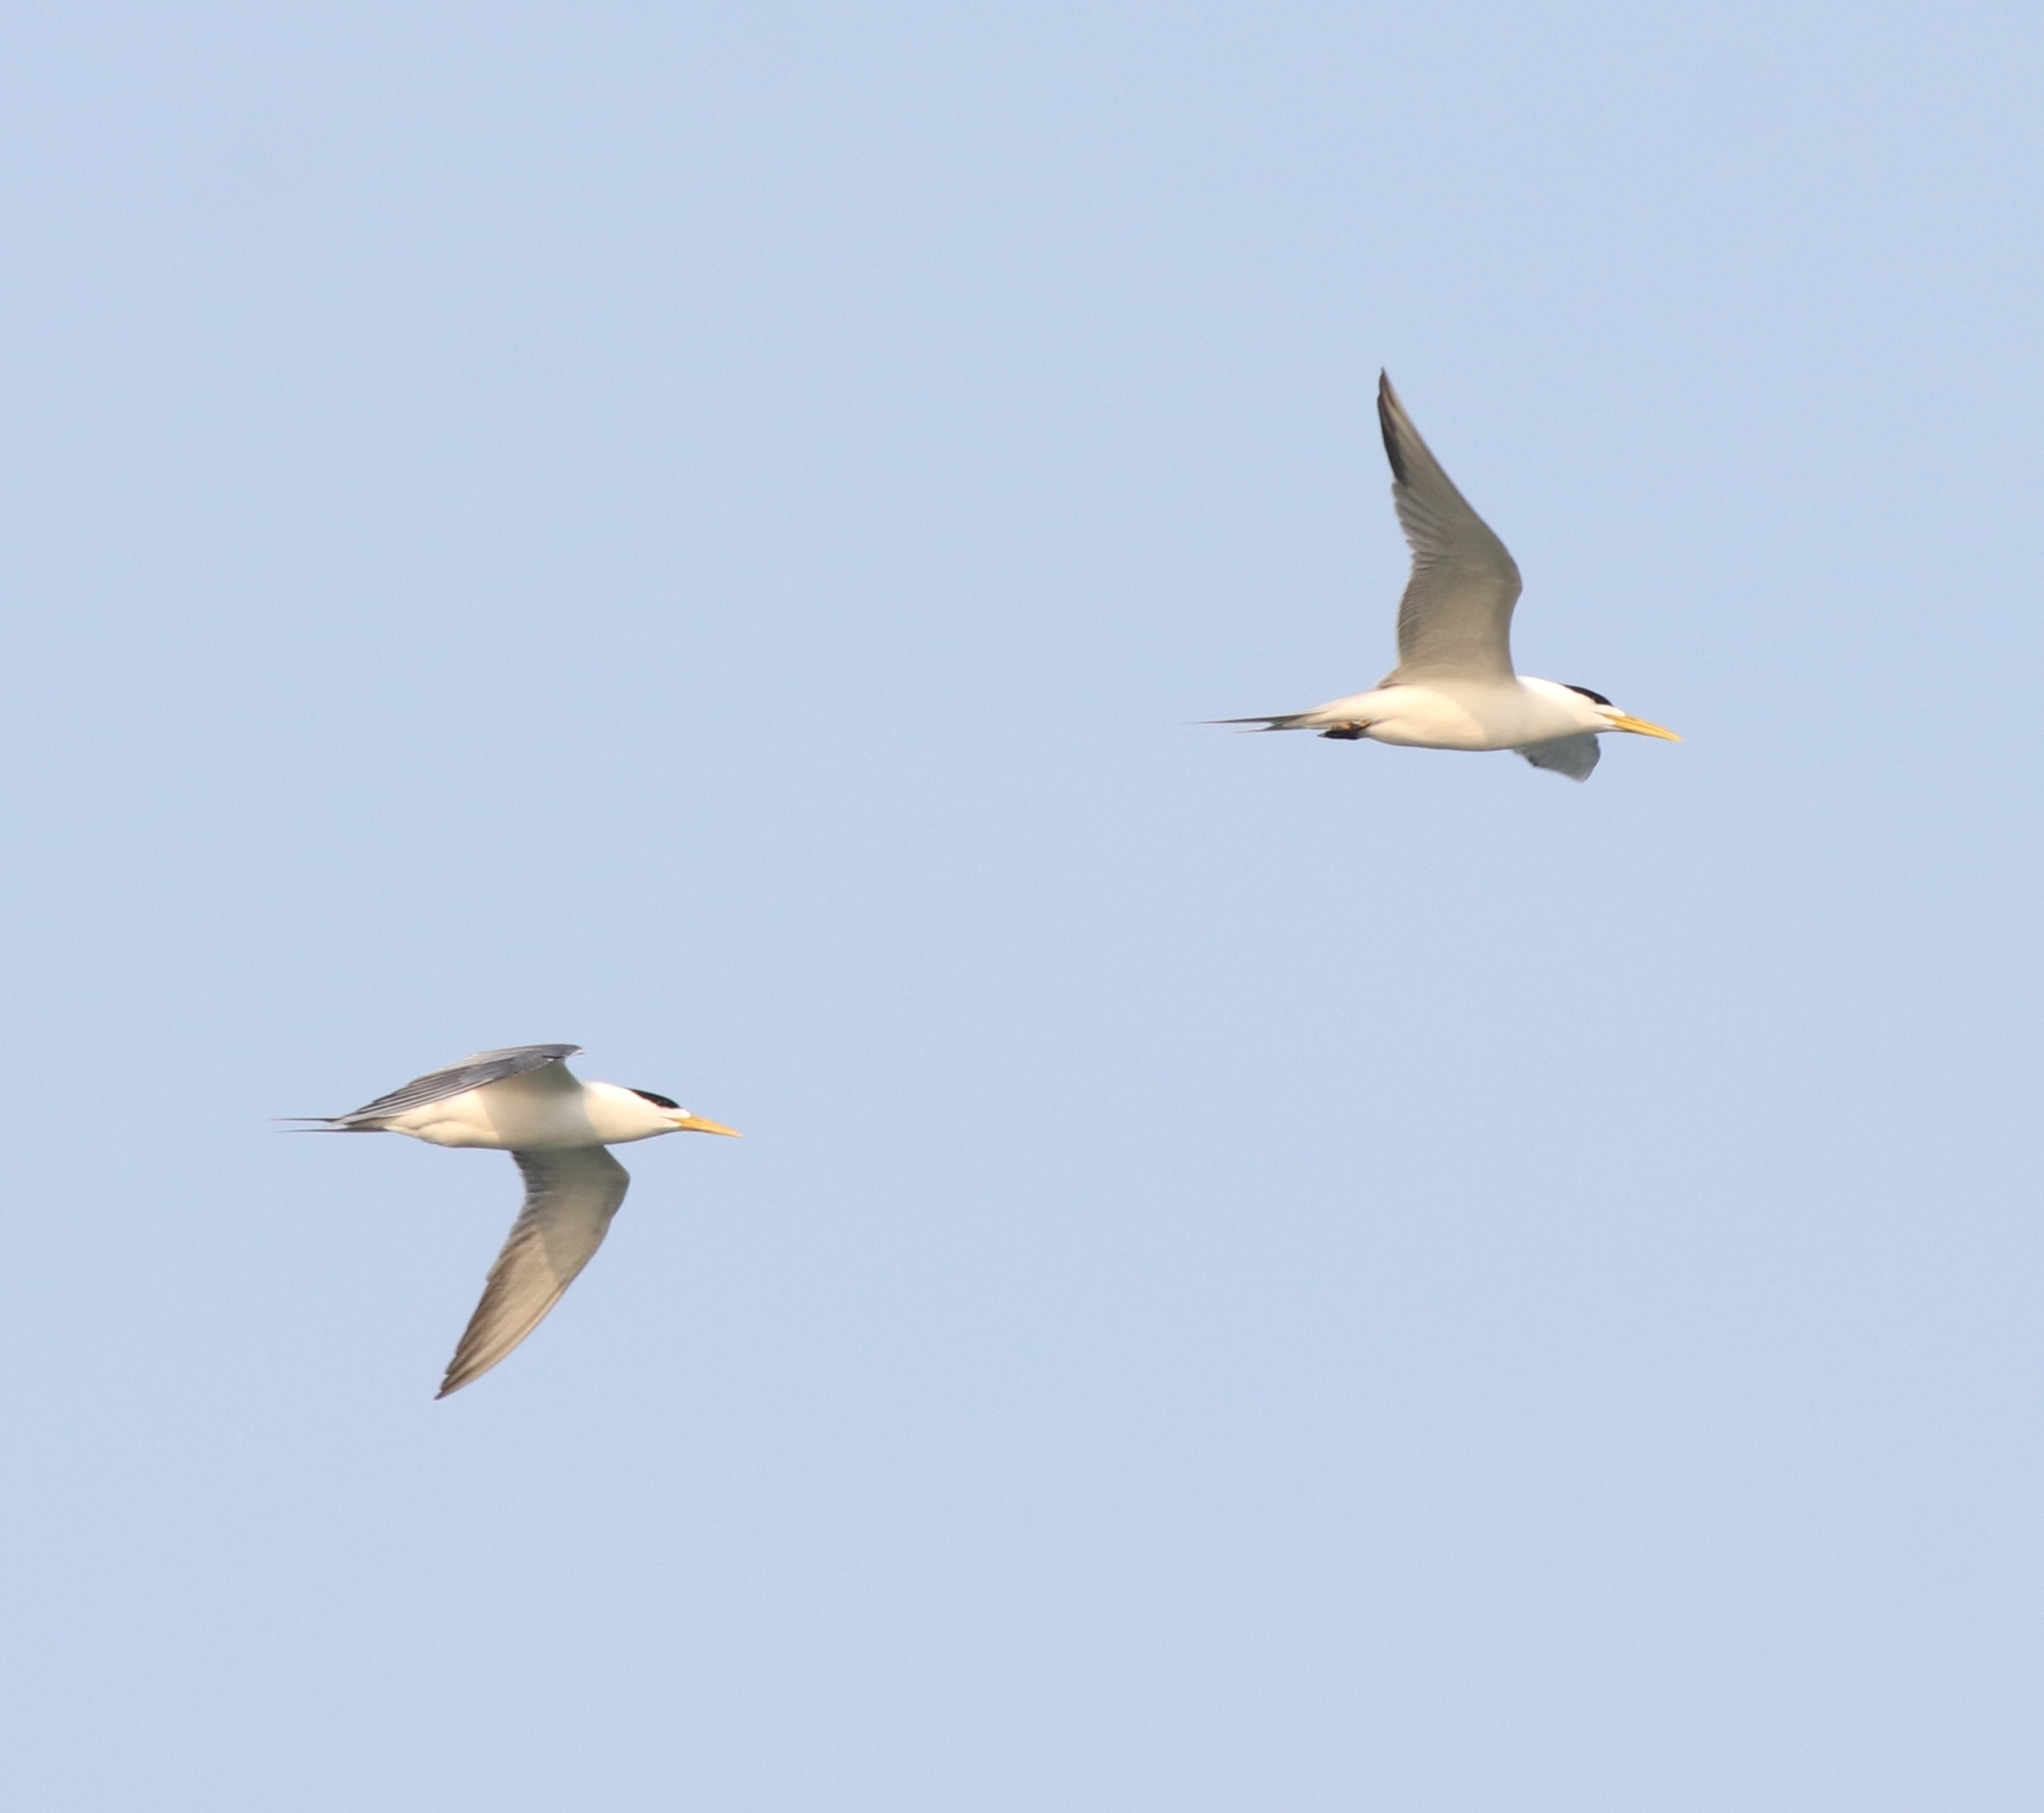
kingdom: Animalia
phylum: Chordata
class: Aves
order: Charadriiformes
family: Laridae
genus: Thalasseus
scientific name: Thalasseus bergii
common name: Greater crested tern
